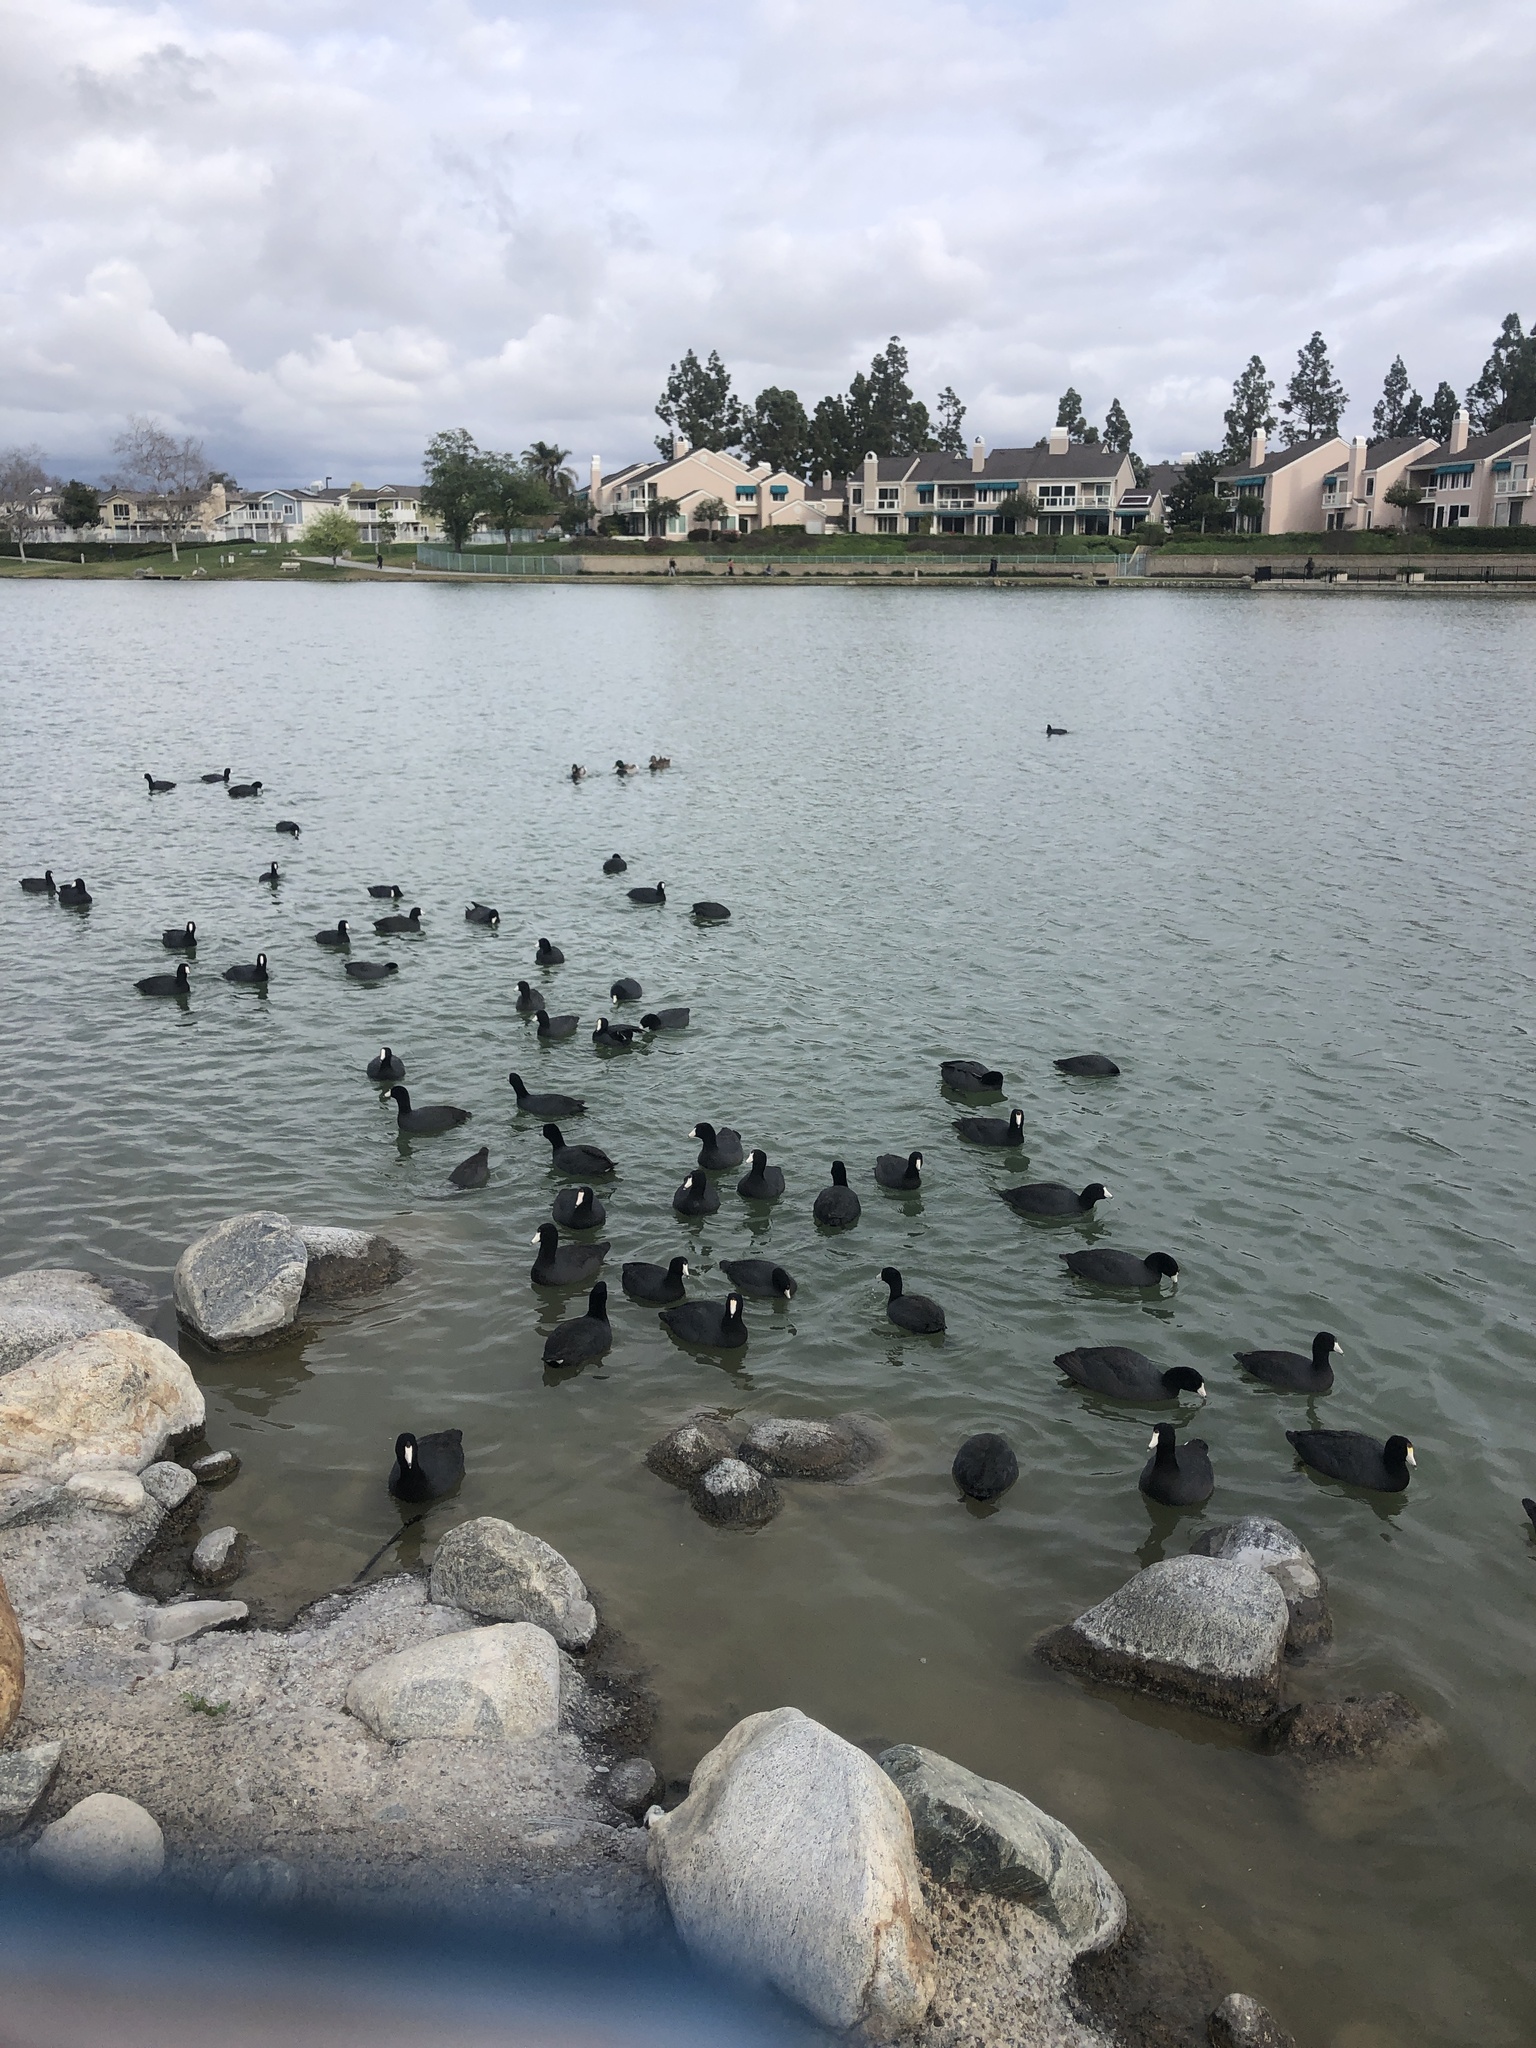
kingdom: Animalia
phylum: Chordata
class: Aves
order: Gruiformes
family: Rallidae
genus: Fulica
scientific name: Fulica americana
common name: American coot
